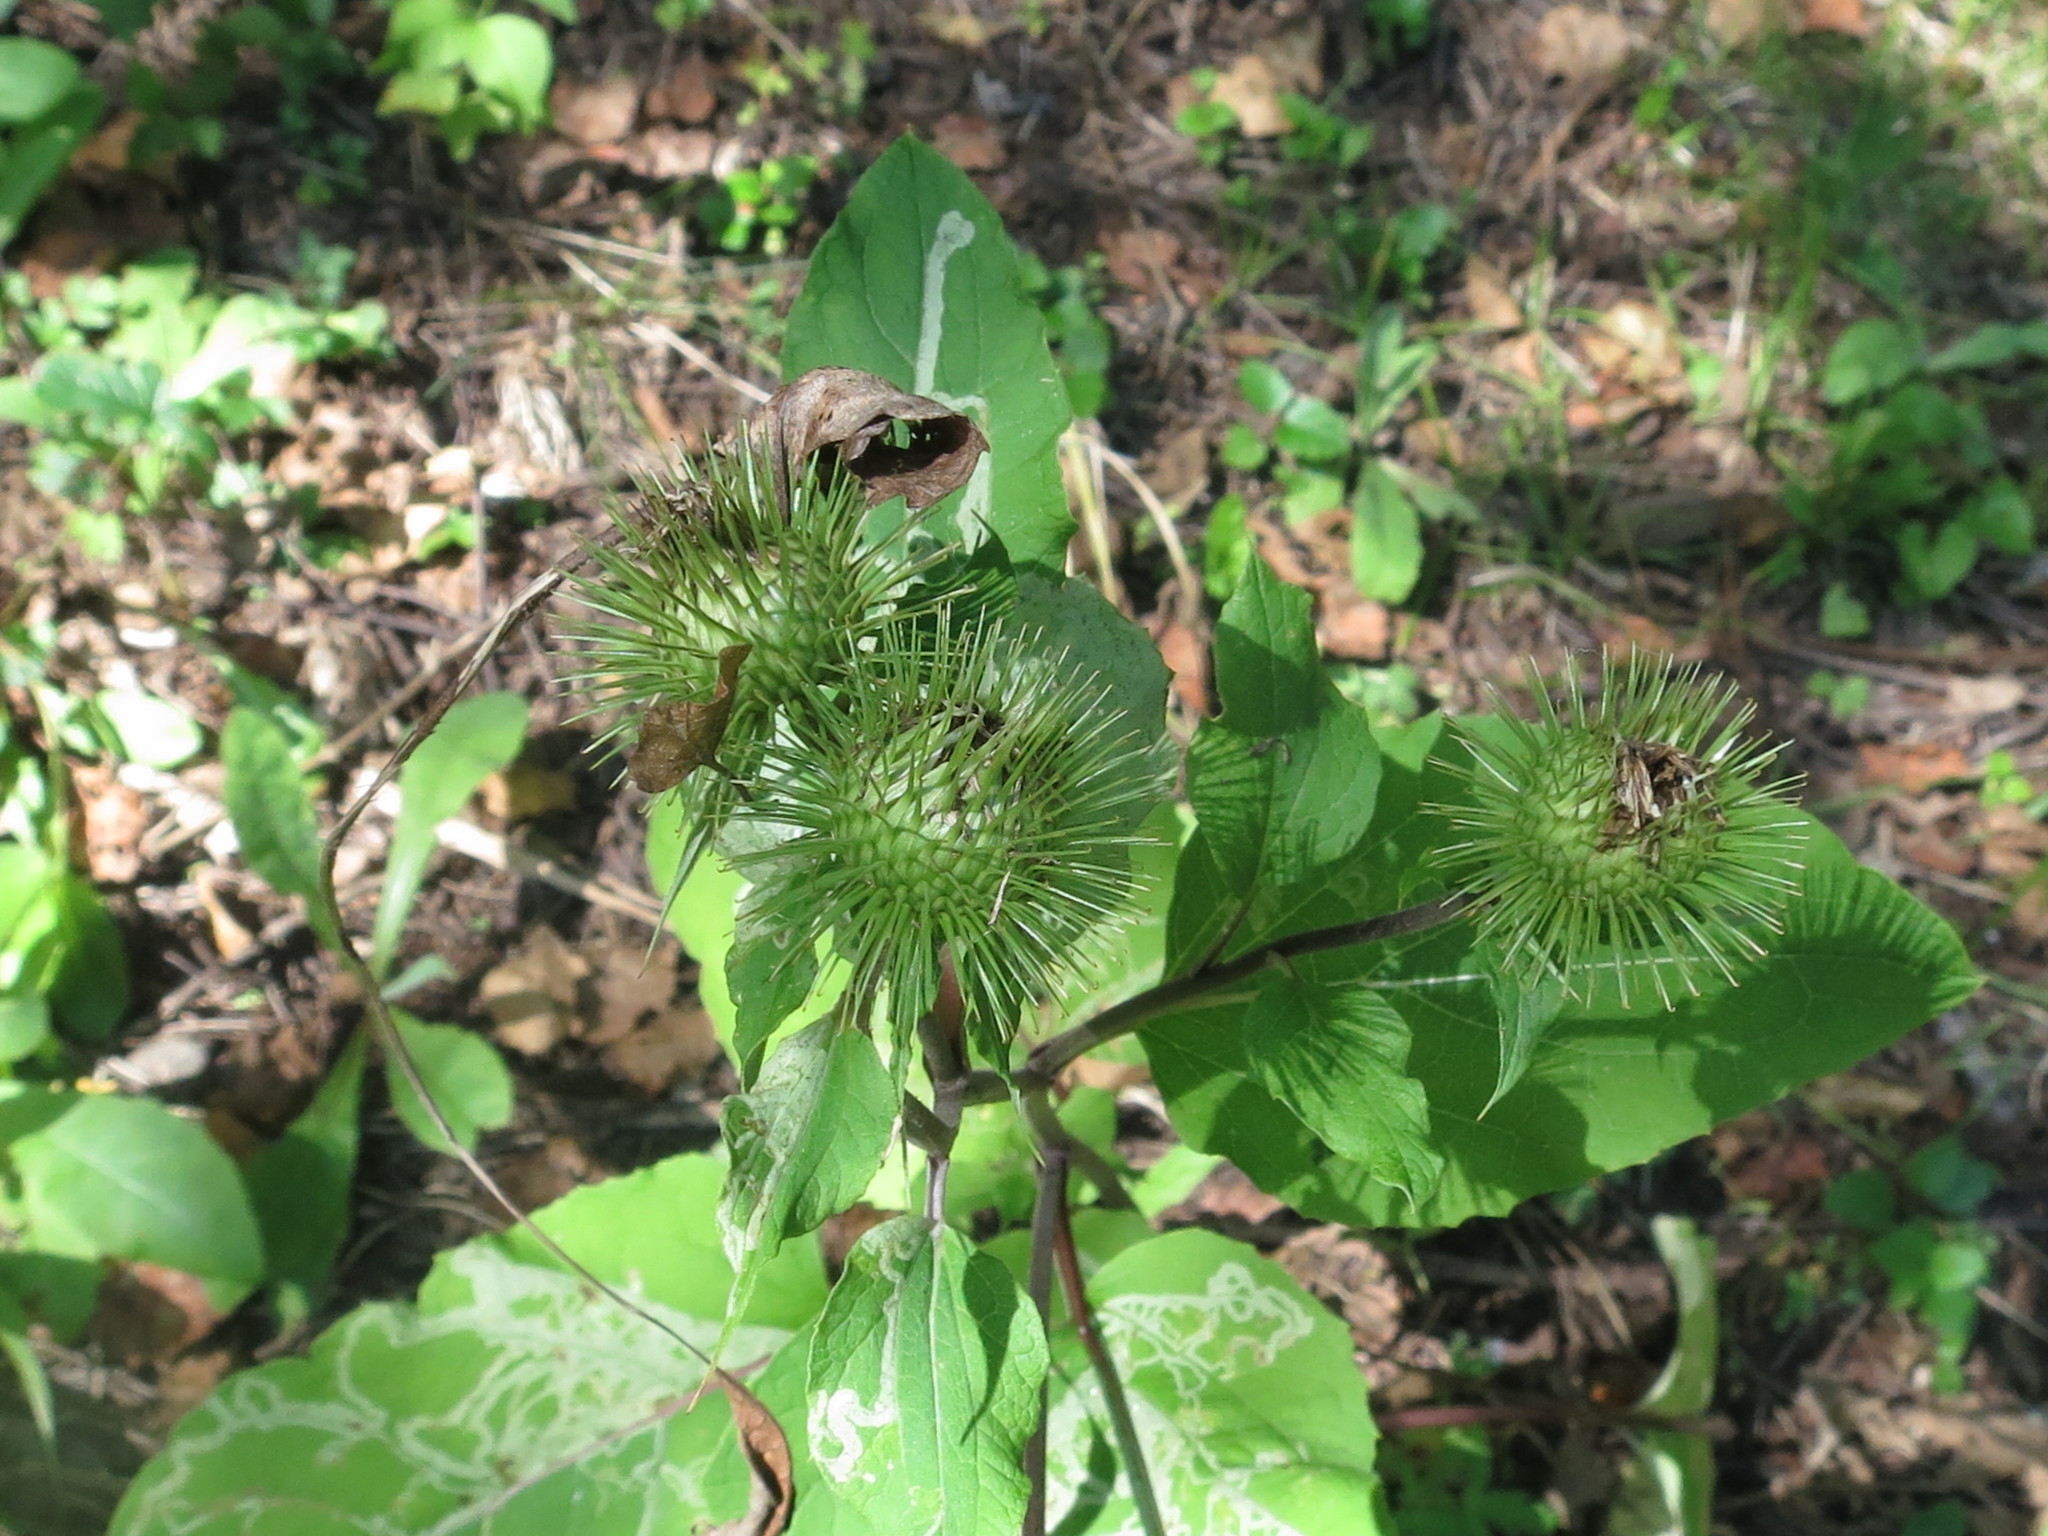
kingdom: Plantae
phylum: Tracheophyta
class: Magnoliopsida
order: Asterales
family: Asteraceae
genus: Arctium
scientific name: Arctium lappa
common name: Greater burdock
